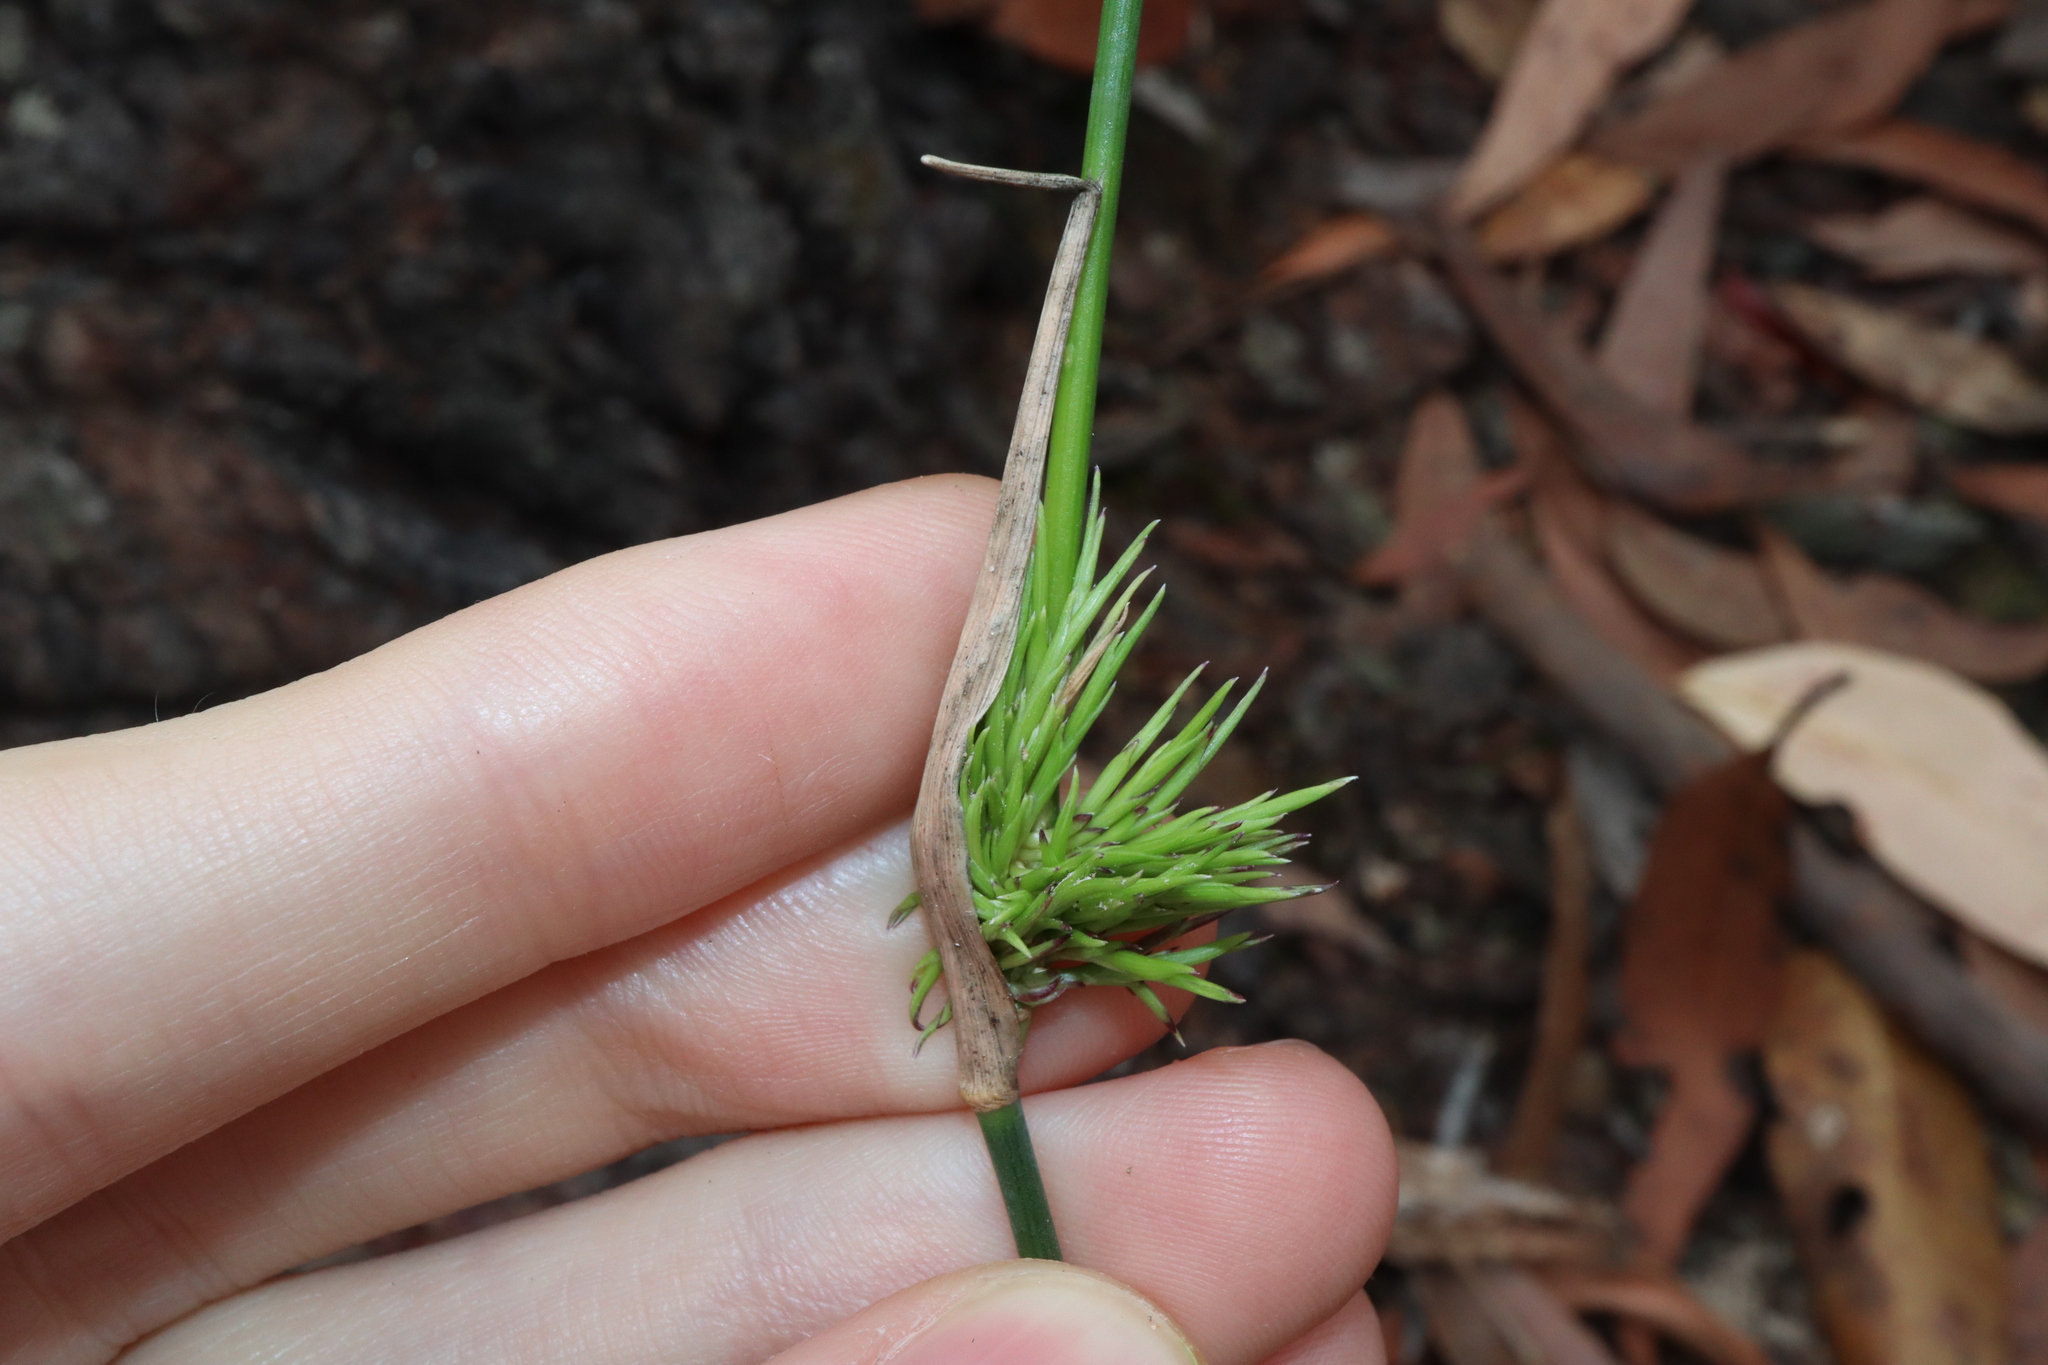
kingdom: Plantae
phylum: Tracheophyta
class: Liliopsida
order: Poales
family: Poaceae
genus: Entolasia
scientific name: Entolasia stricta
